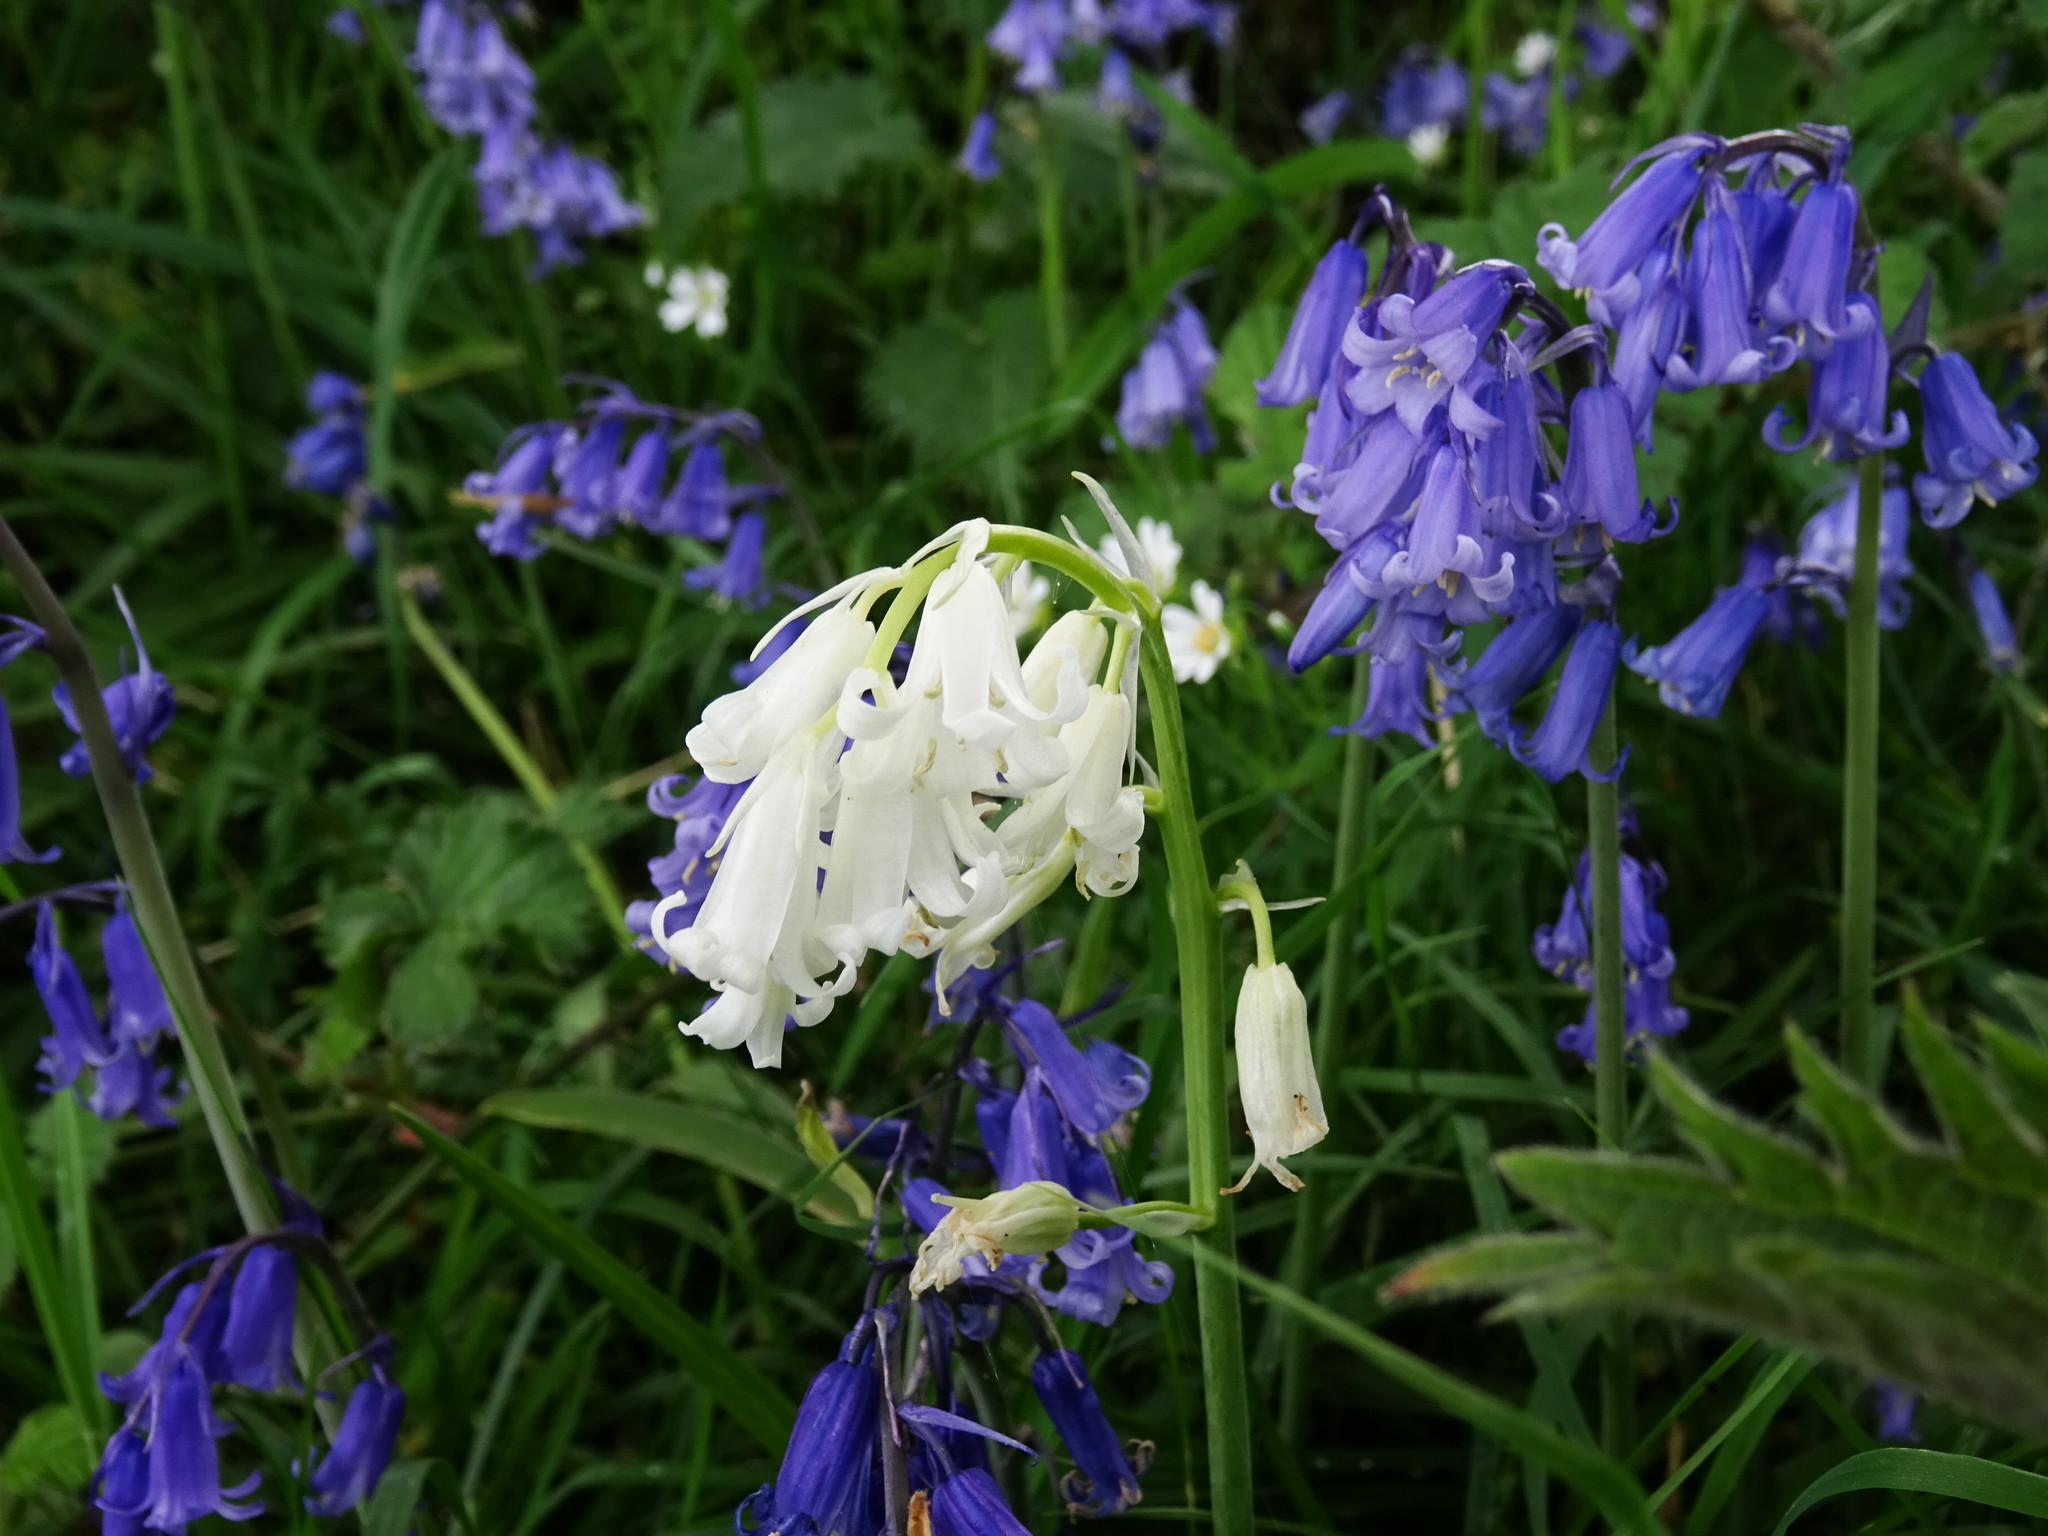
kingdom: Plantae
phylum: Tracheophyta
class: Liliopsida
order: Asparagales
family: Asparagaceae
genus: Hyacinthoides
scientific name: Hyacinthoides non-scripta
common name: Bluebell
